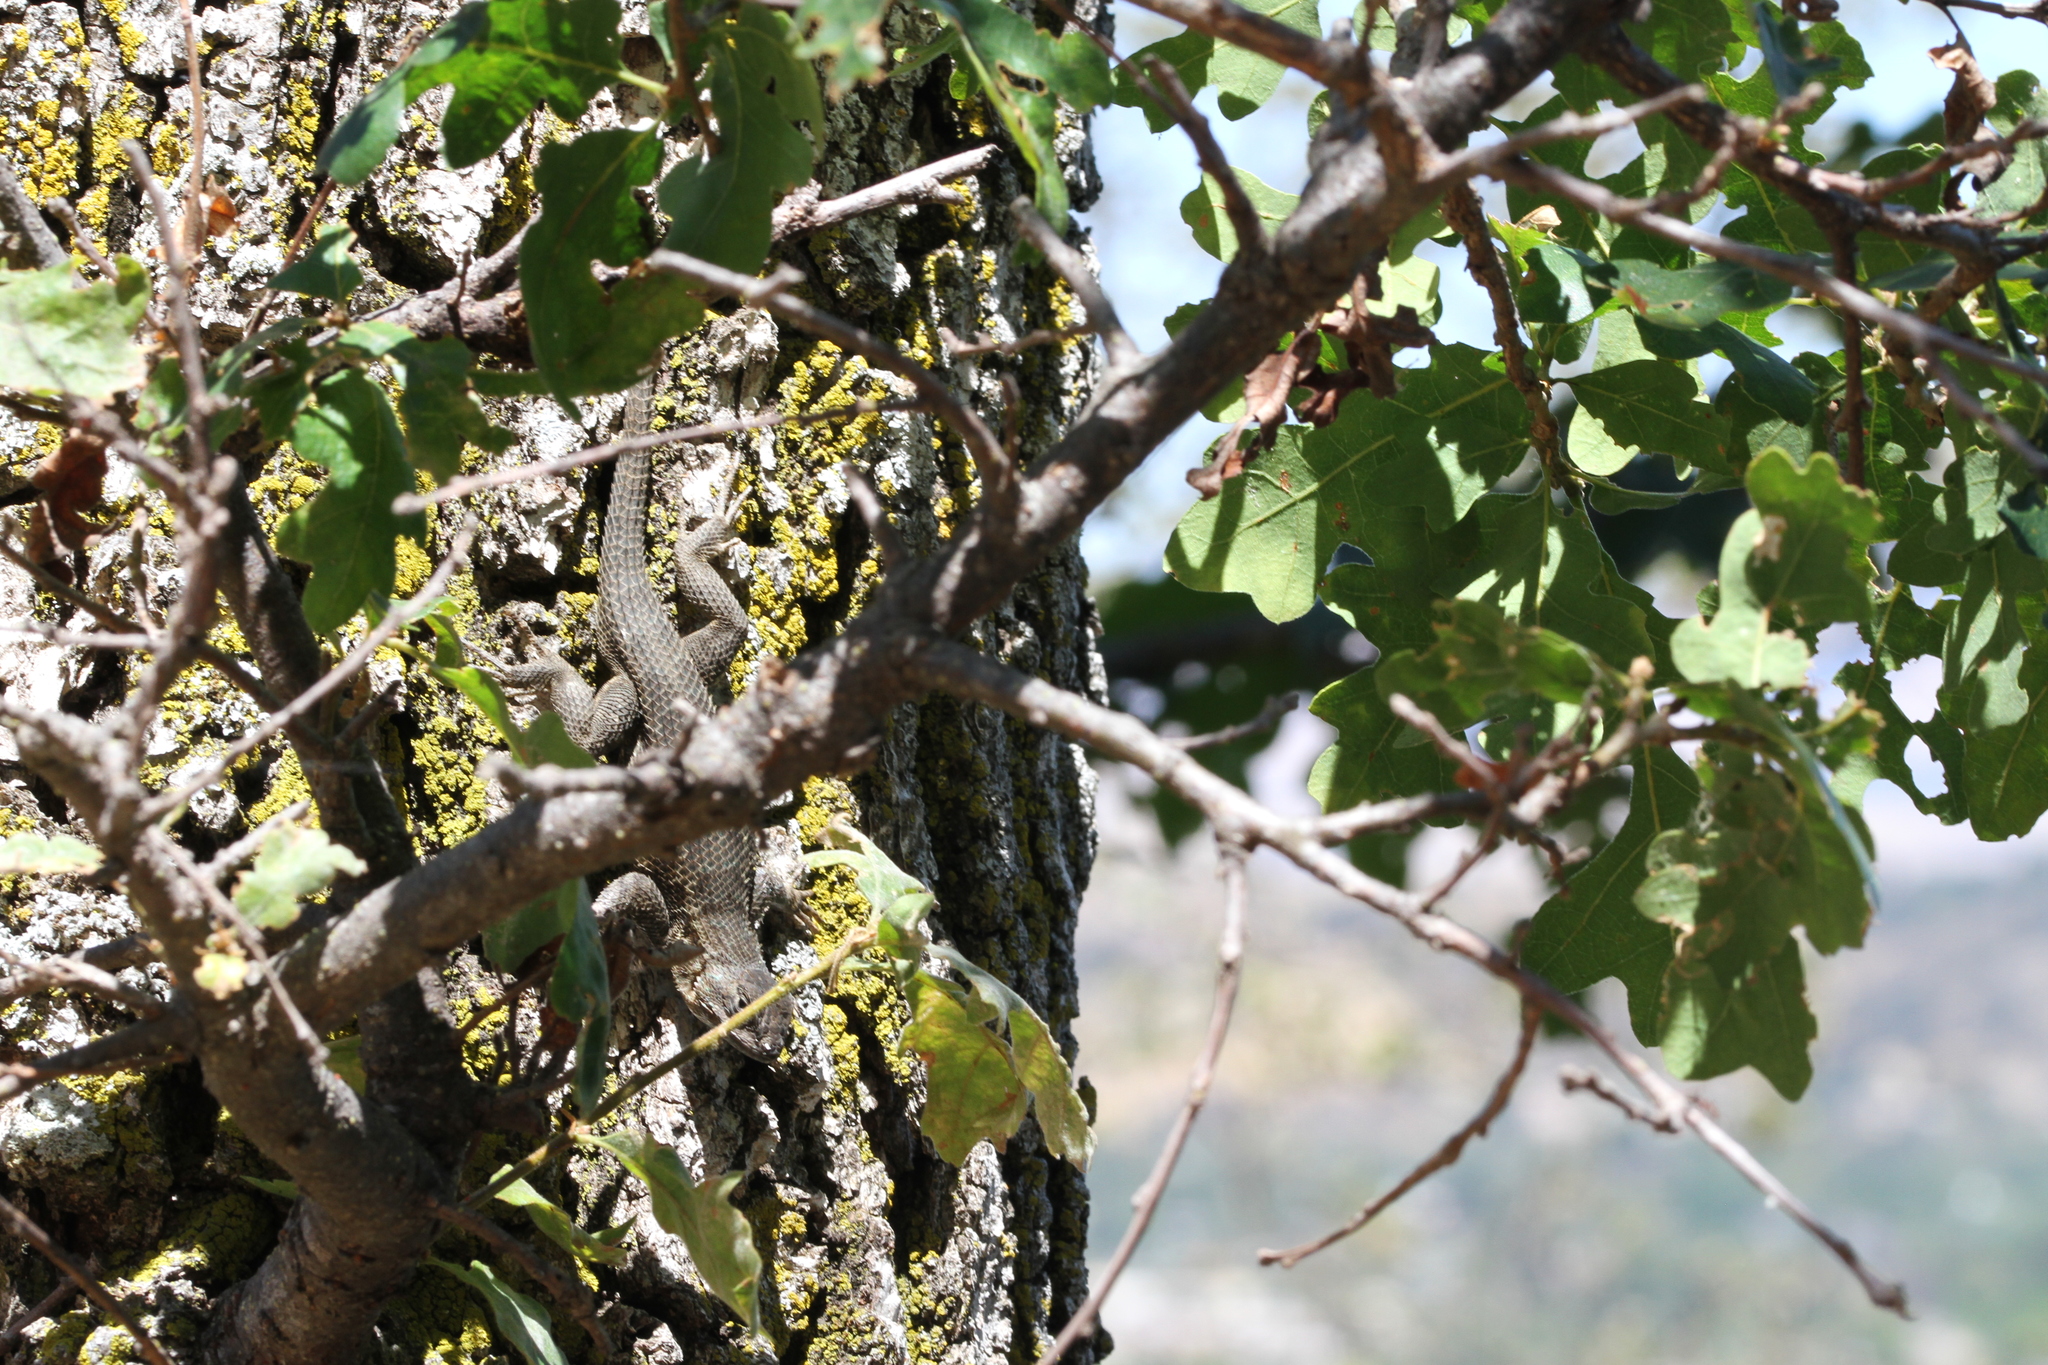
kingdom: Animalia
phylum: Chordata
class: Squamata
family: Phrynosomatidae
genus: Sceloporus
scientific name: Sceloporus occidentalis
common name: Western fence lizard
